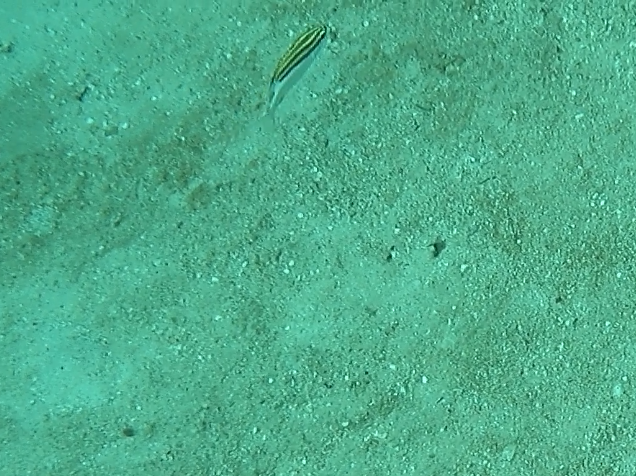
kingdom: Animalia
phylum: Chordata
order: Perciformes
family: Nemipteridae
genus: Scolopsis
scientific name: Scolopsis bilineata
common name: Two-lined monocle bream
